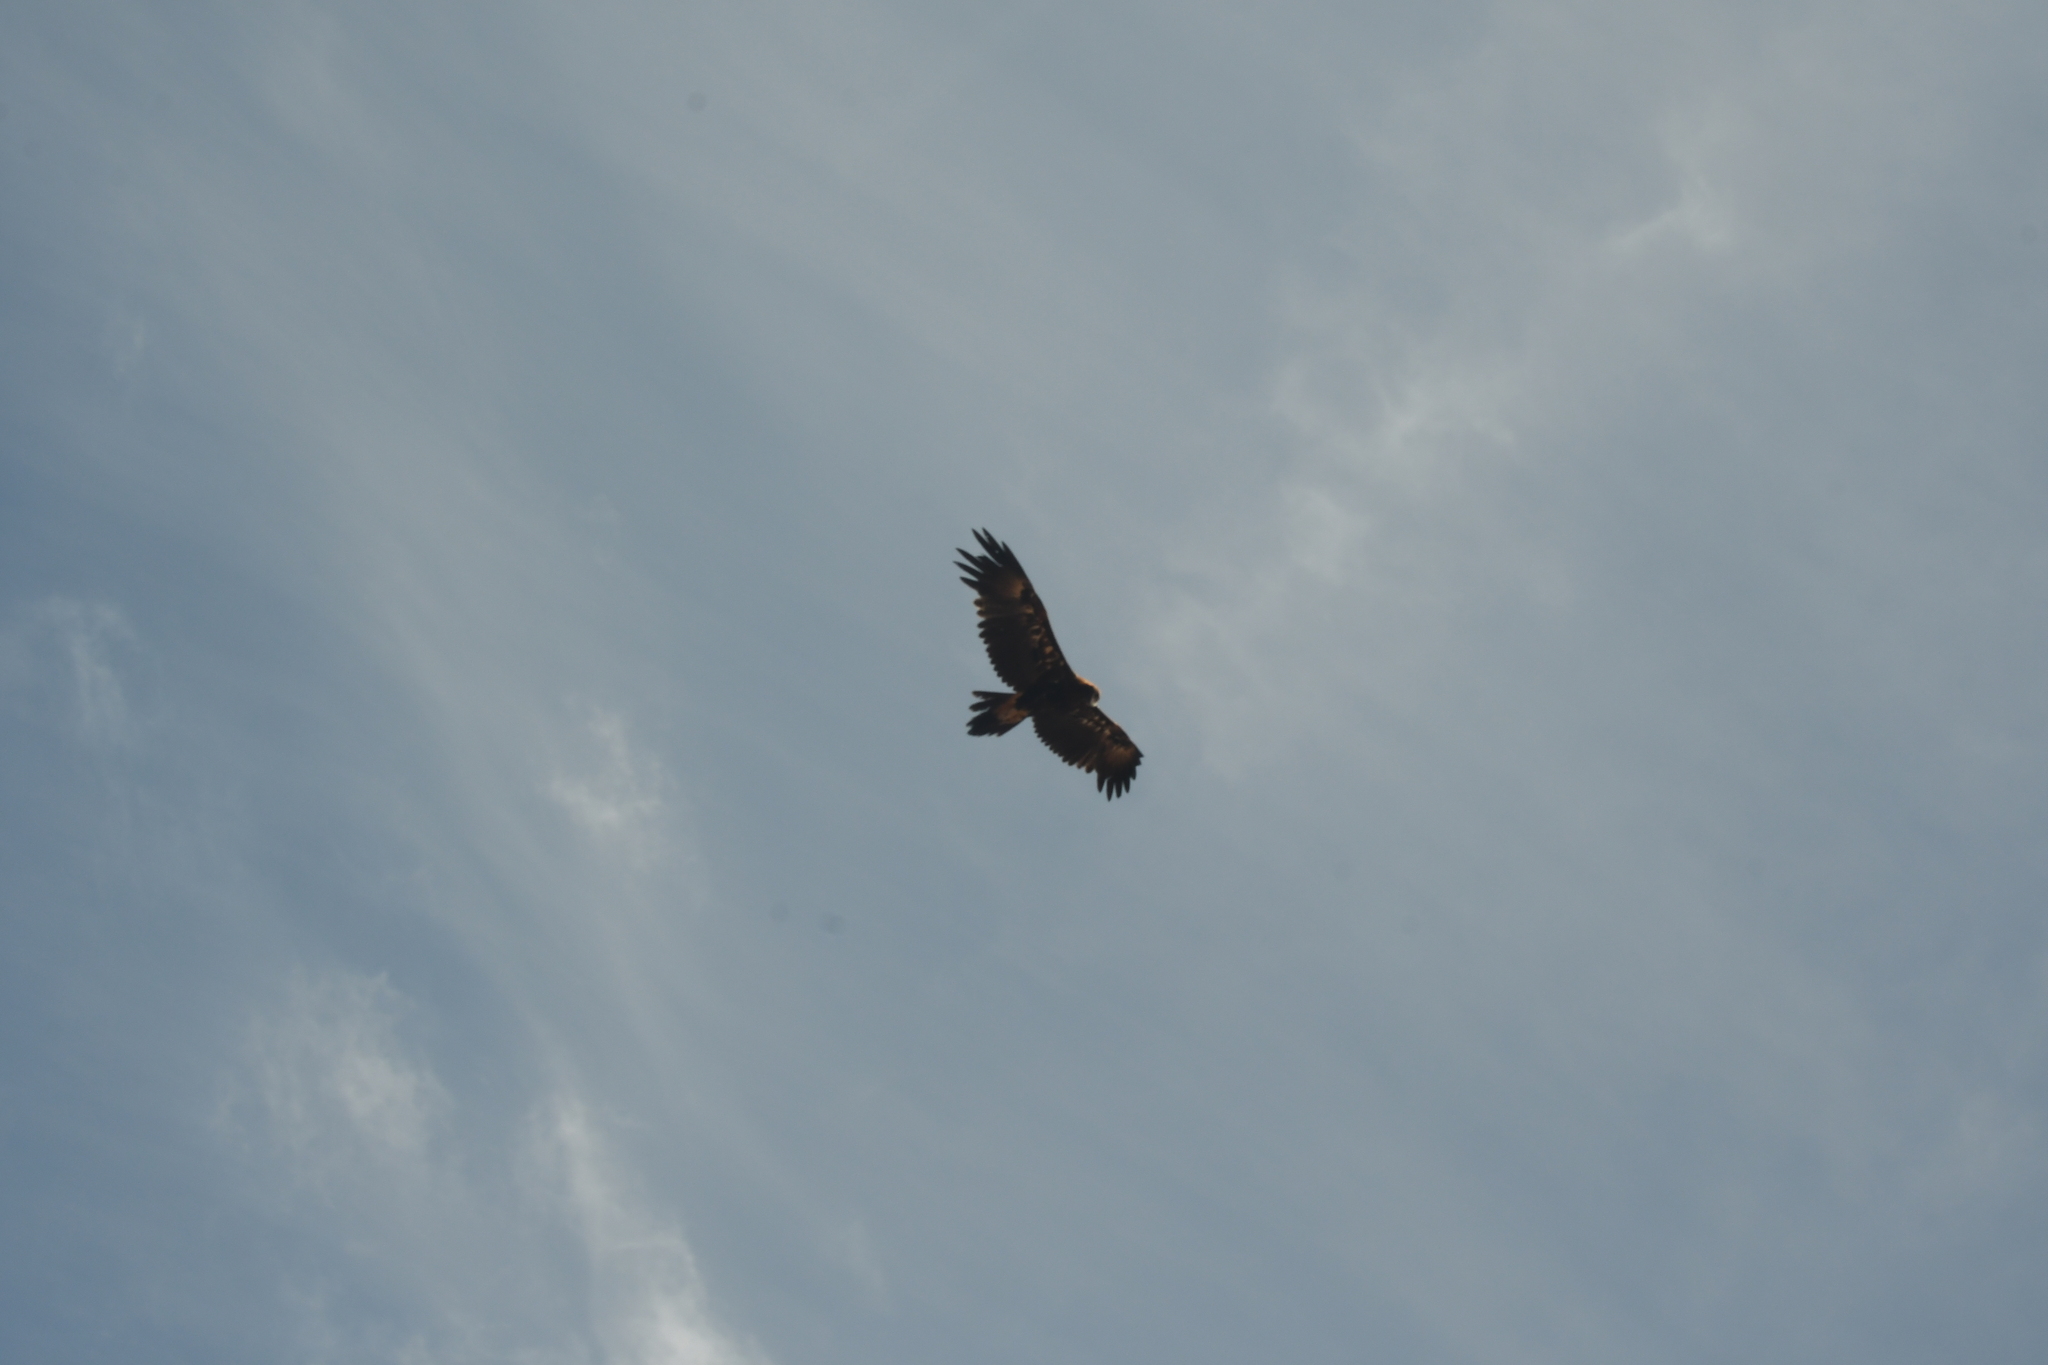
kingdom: Animalia
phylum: Chordata
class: Aves
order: Accipitriformes
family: Accipitridae
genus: Aquila
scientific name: Aquila audax
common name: Wedge-tailed eagle
